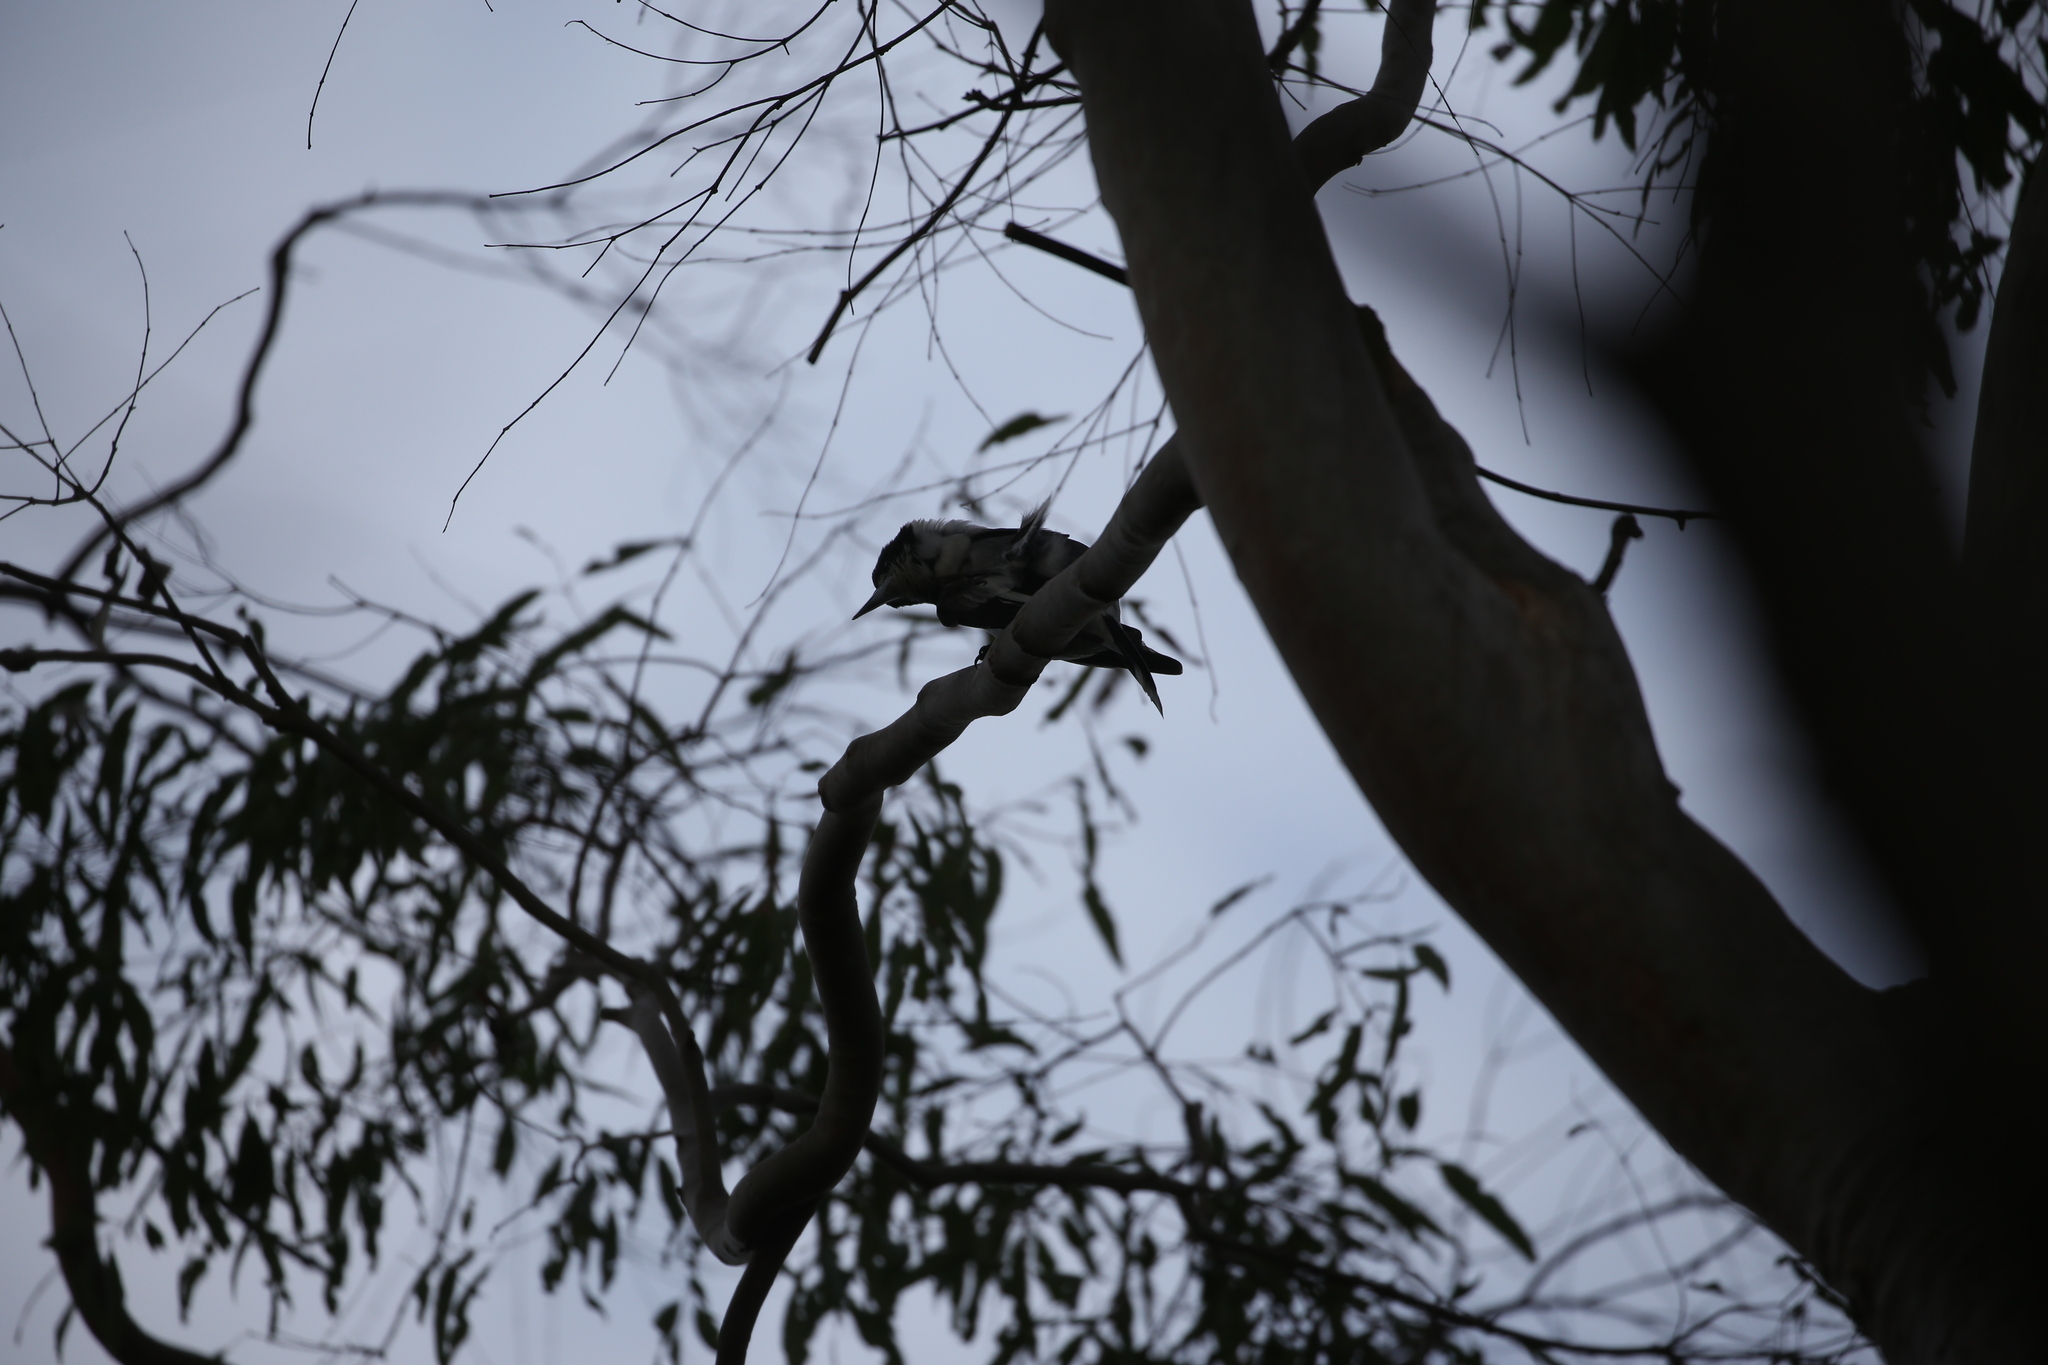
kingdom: Animalia
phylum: Chordata
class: Aves
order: Passeriformes
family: Cracticidae
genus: Cracticus
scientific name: Cracticus torquatus
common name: Grey butcherbird
